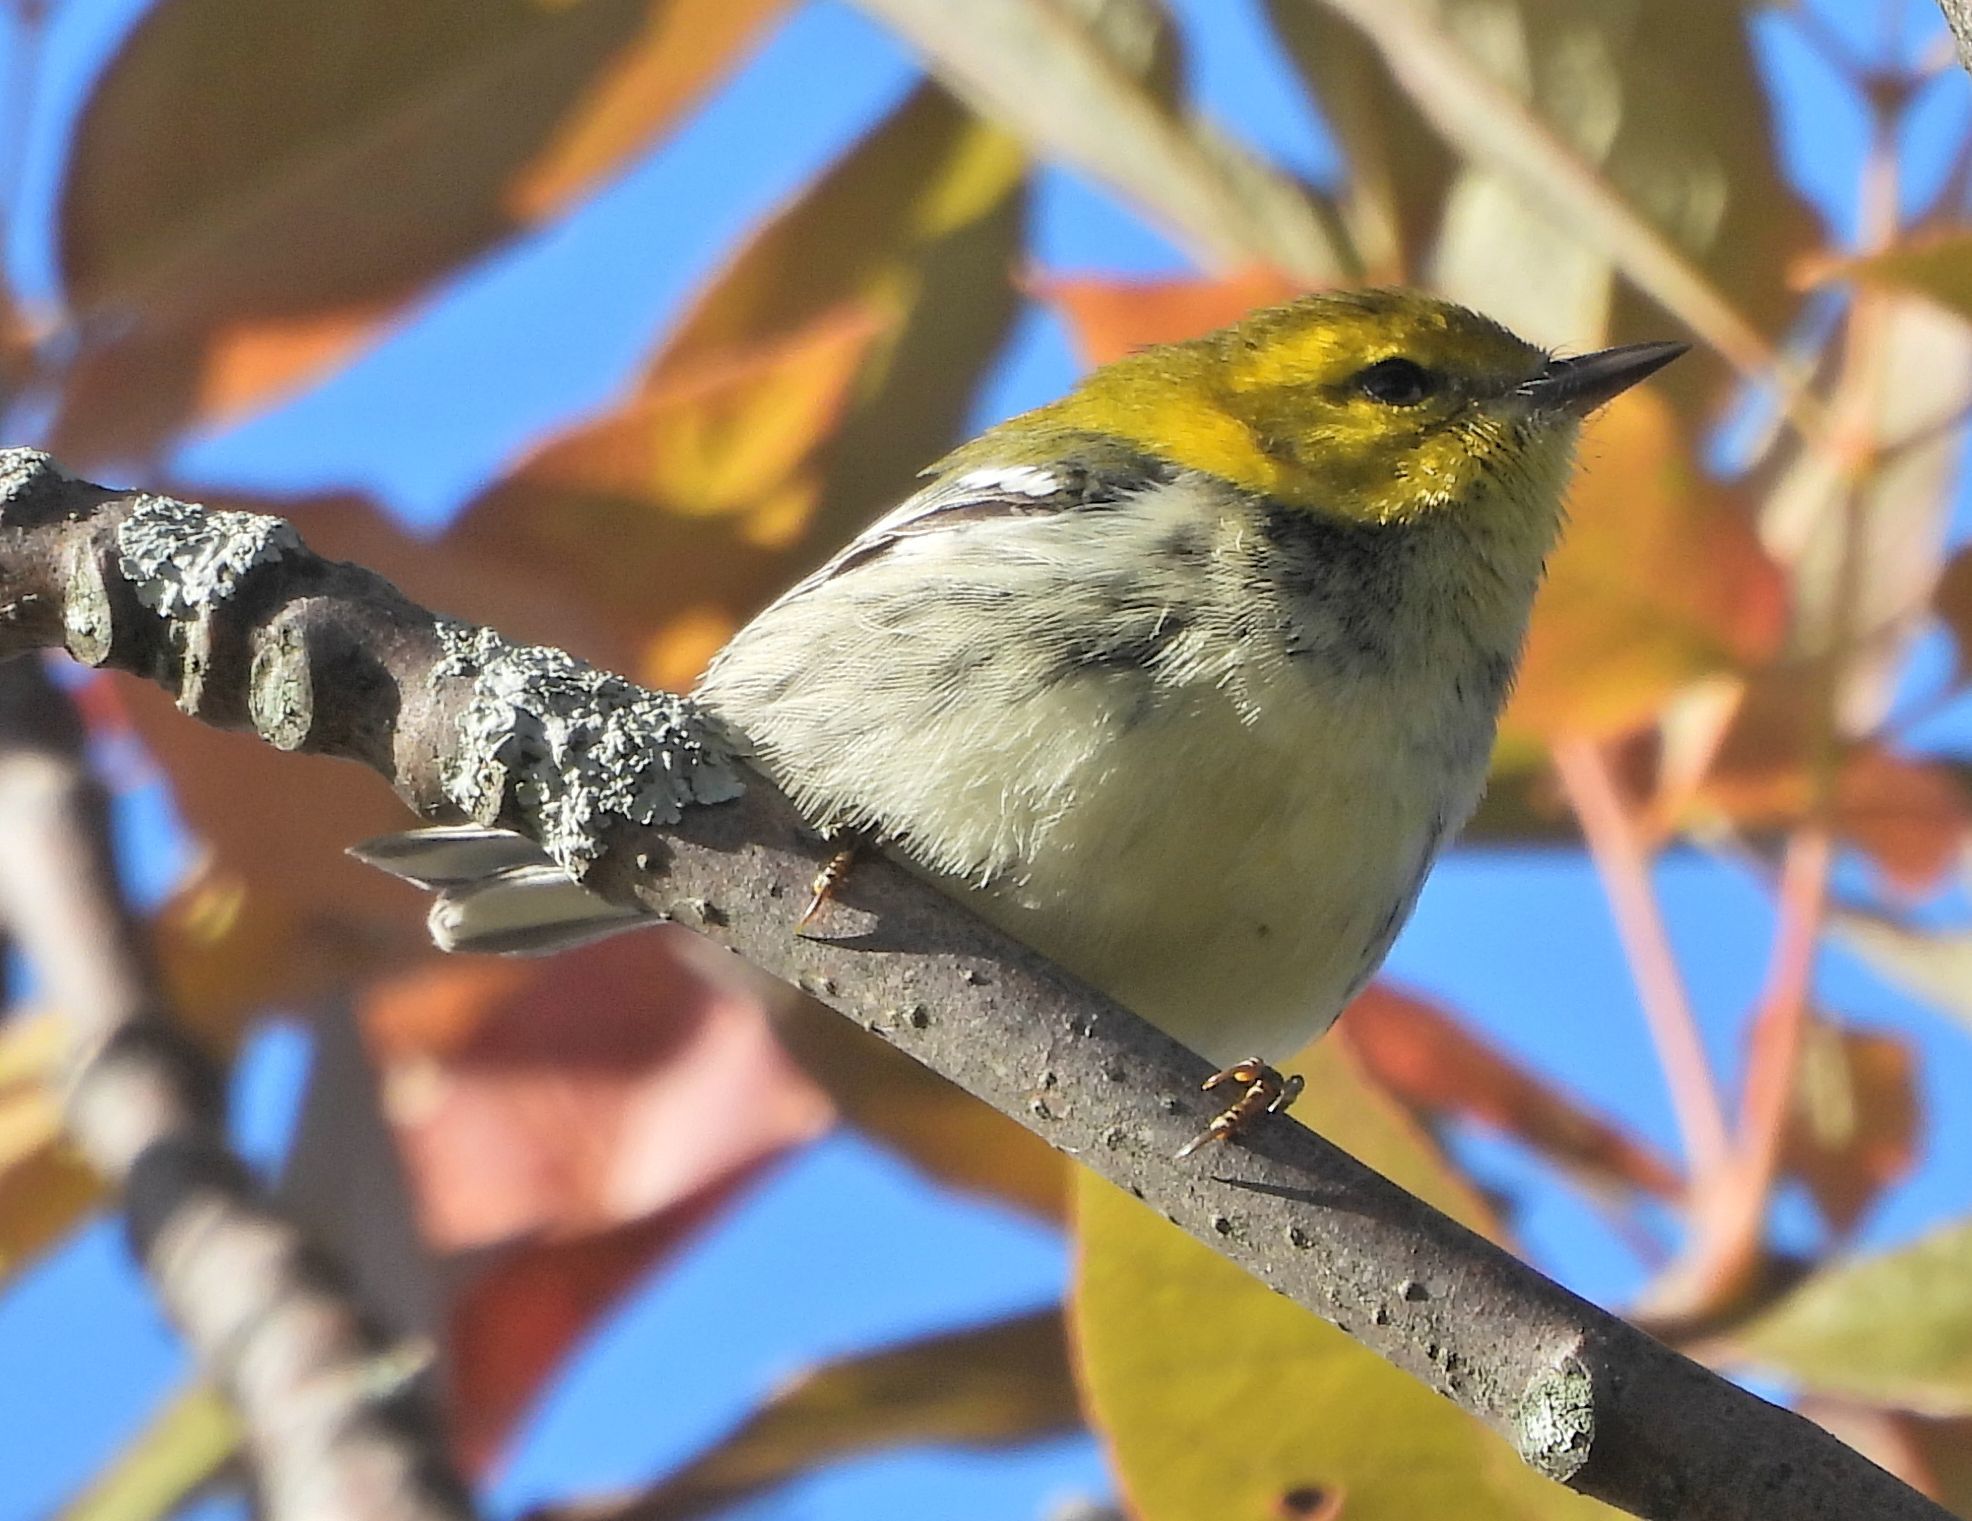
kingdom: Animalia
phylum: Chordata
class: Aves
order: Passeriformes
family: Parulidae
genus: Setophaga
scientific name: Setophaga virens
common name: Black-throated green warbler
